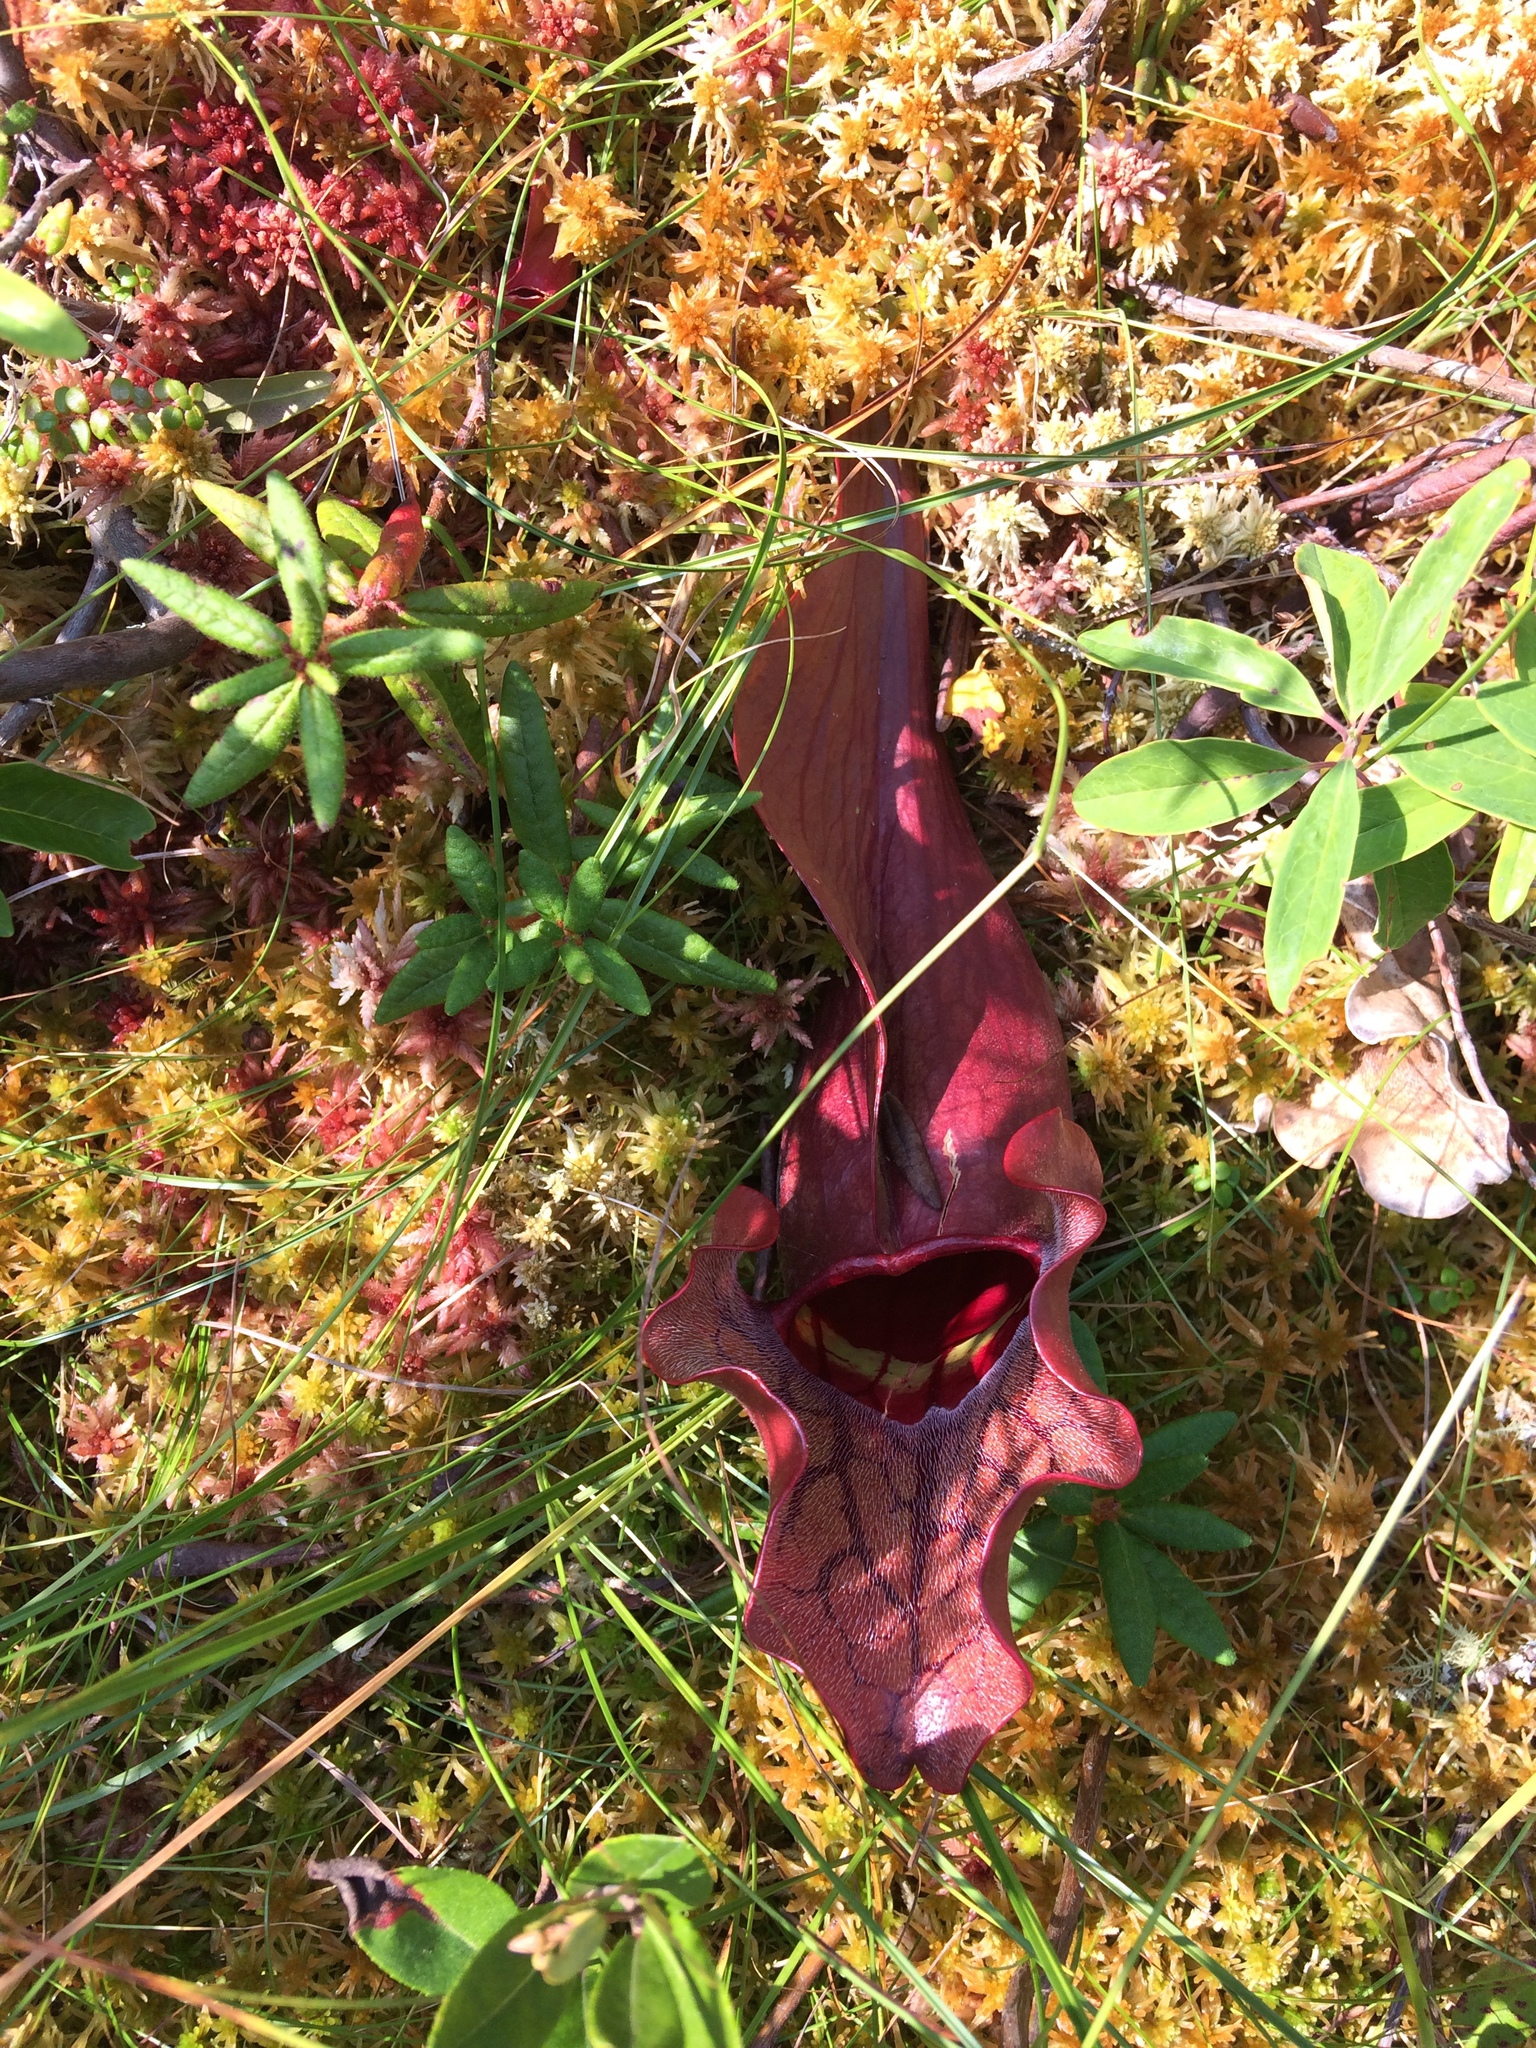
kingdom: Plantae
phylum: Tracheophyta
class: Magnoliopsida
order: Ericales
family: Sarraceniaceae
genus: Sarracenia
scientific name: Sarracenia purpurea
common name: Pitcherplant
